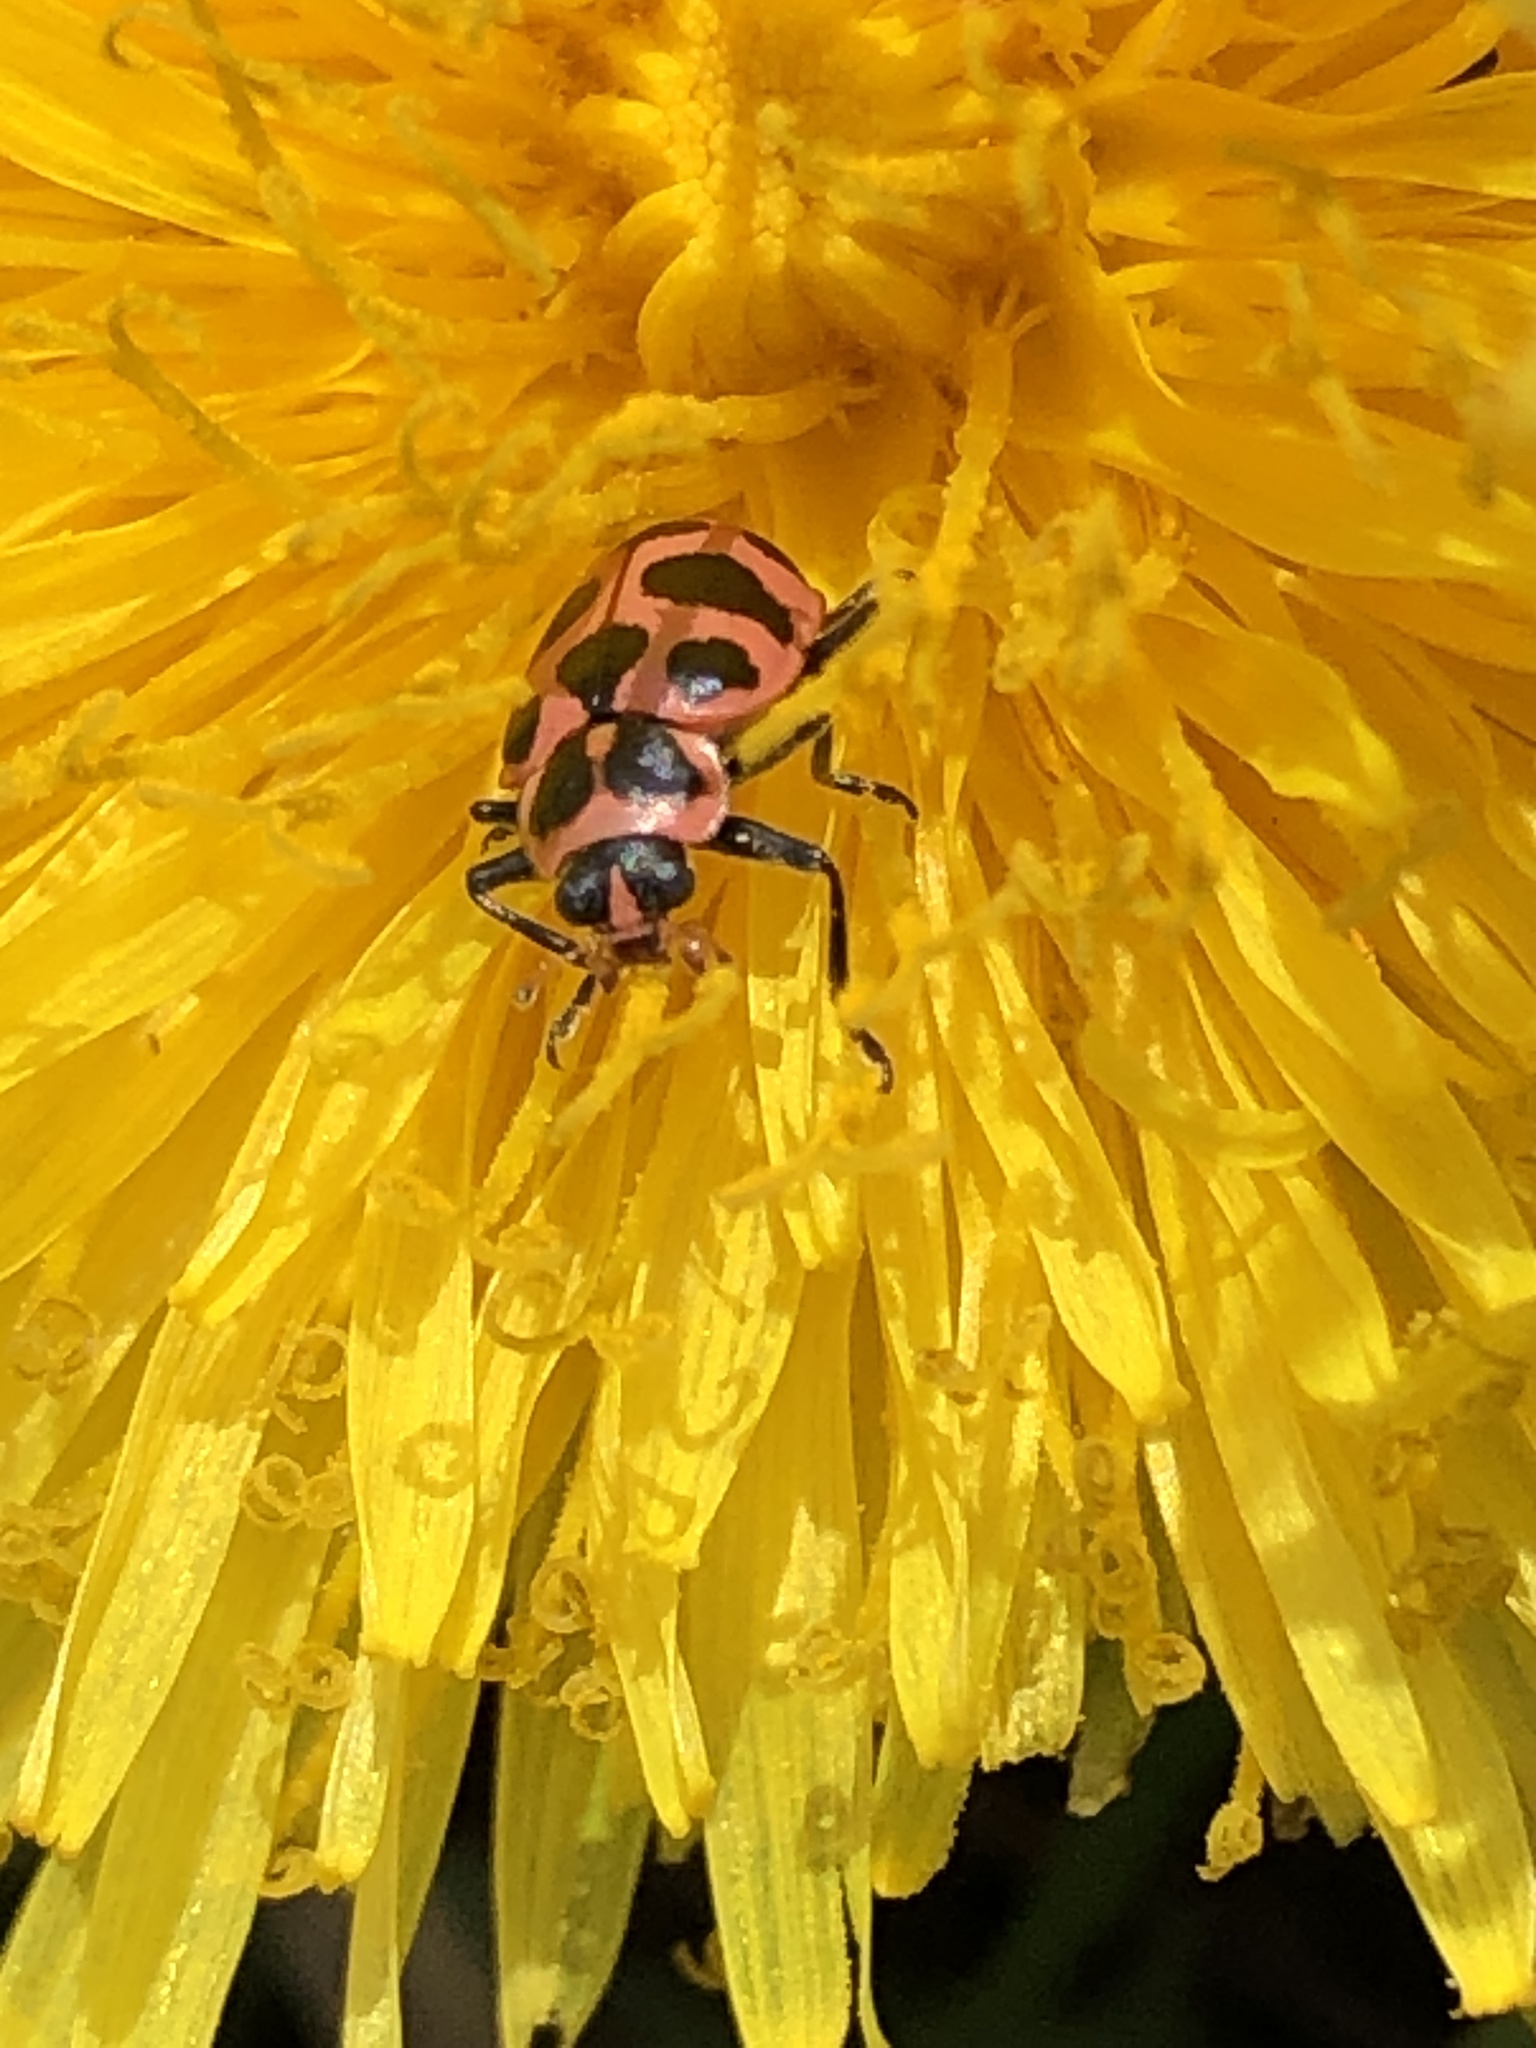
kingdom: Animalia
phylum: Arthropoda
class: Insecta
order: Coleoptera
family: Coccinellidae
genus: Coleomegilla
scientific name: Coleomegilla maculata
